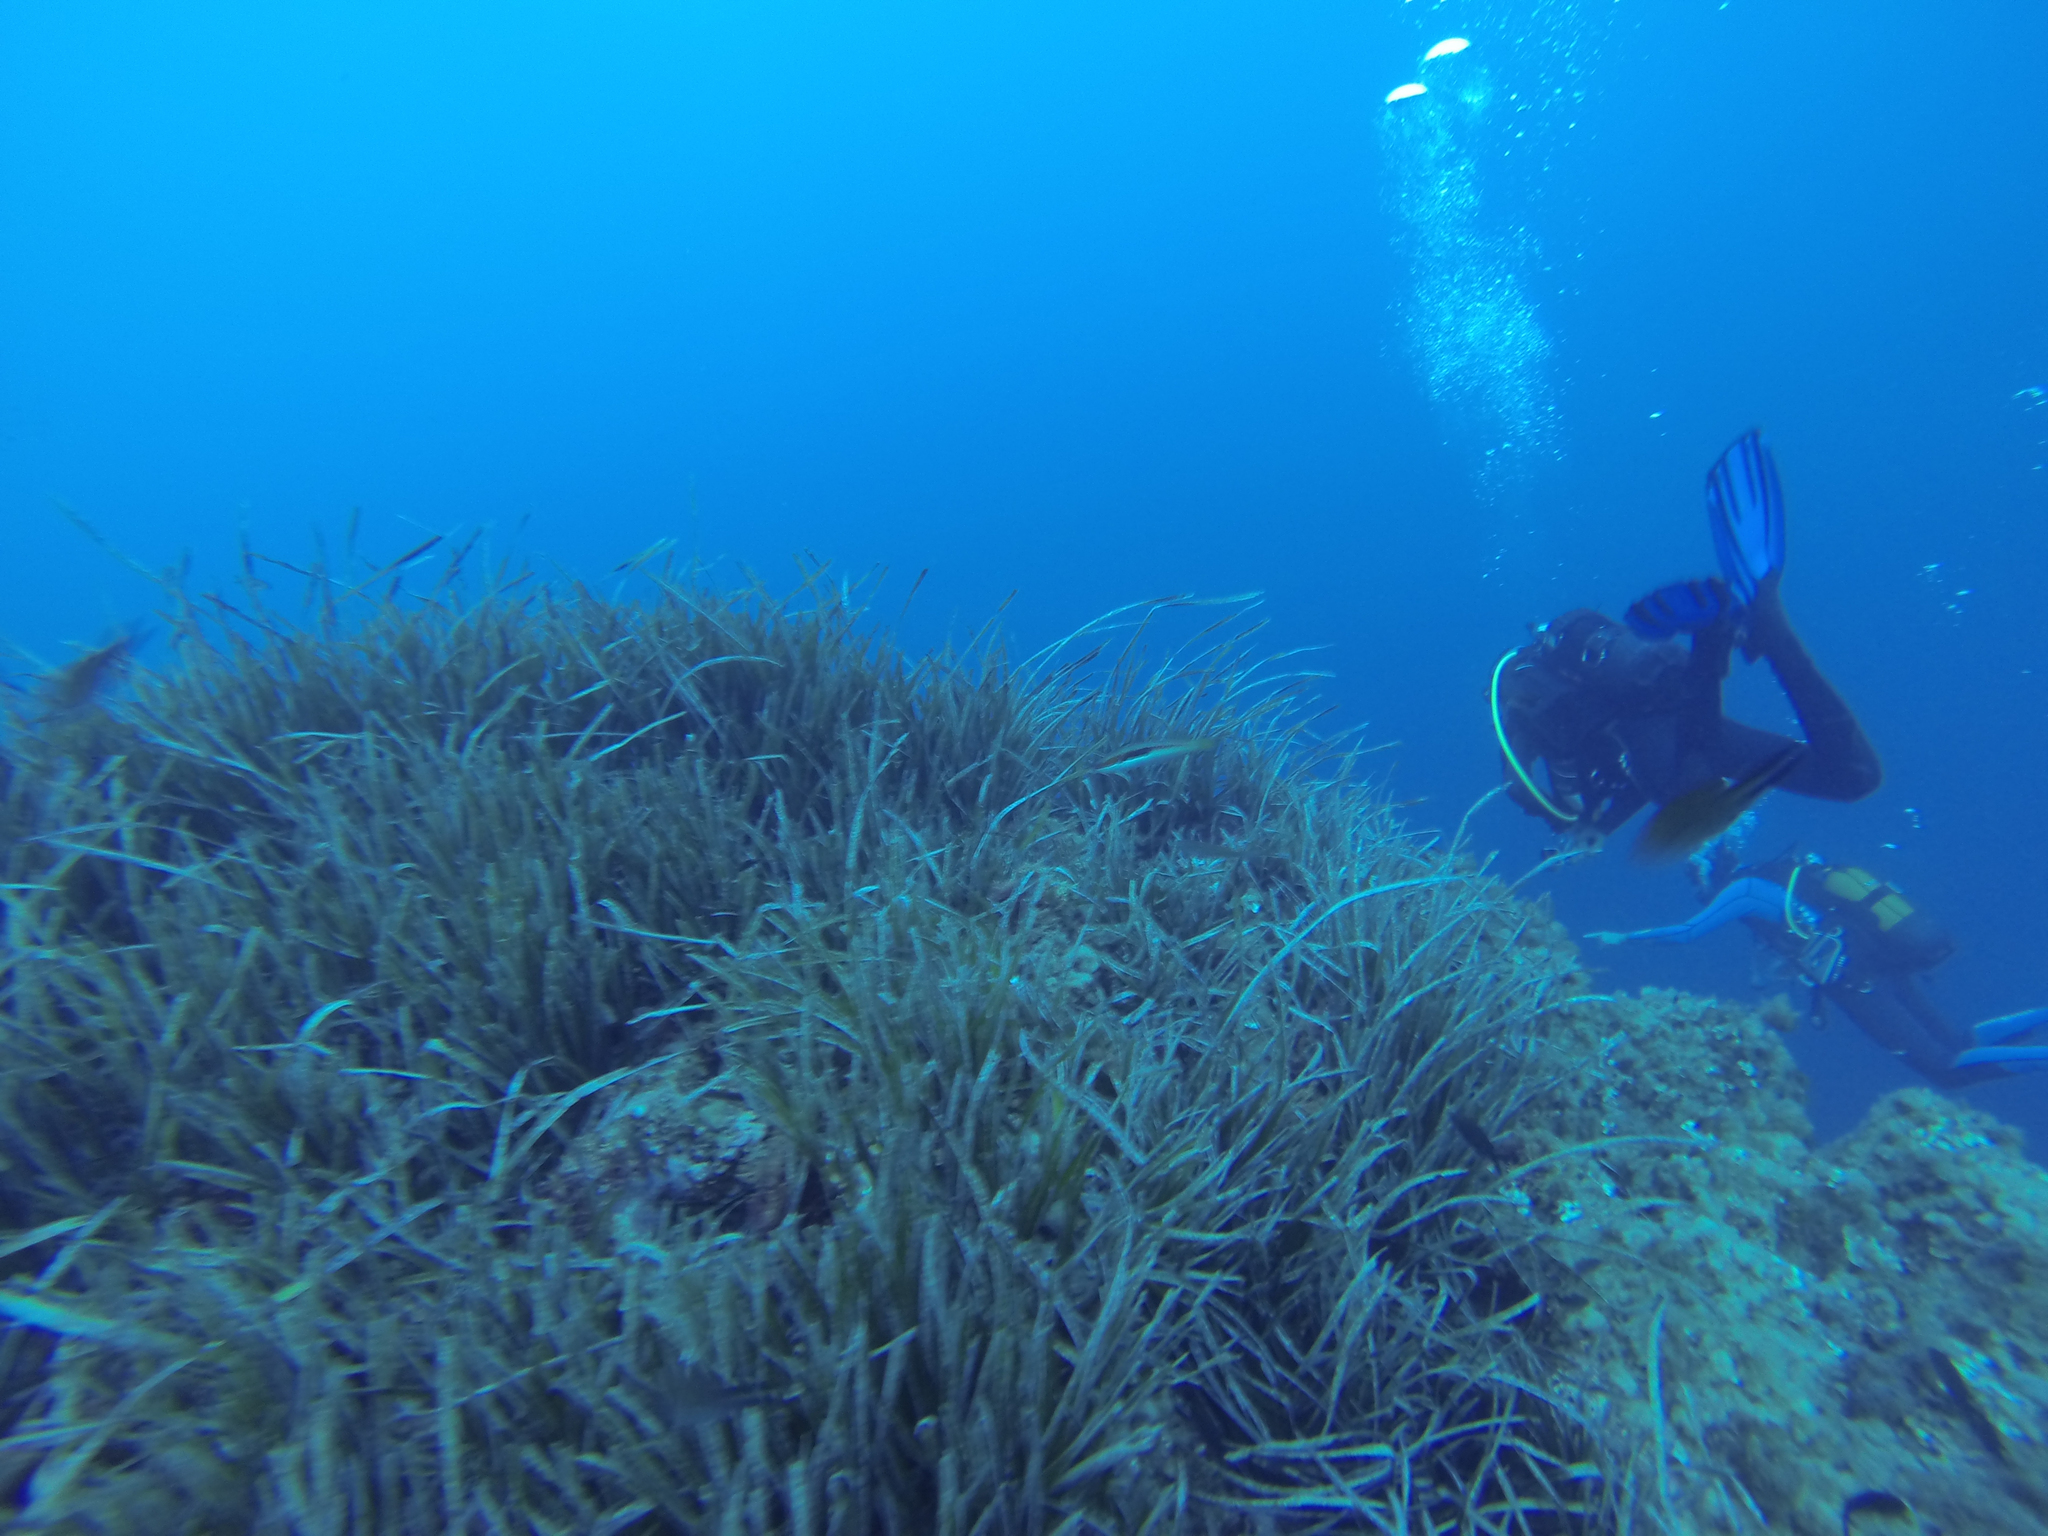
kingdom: Animalia
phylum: Chordata
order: Perciformes
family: Labridae
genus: Coris
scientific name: Coris julis
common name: Rainbow wrasse
